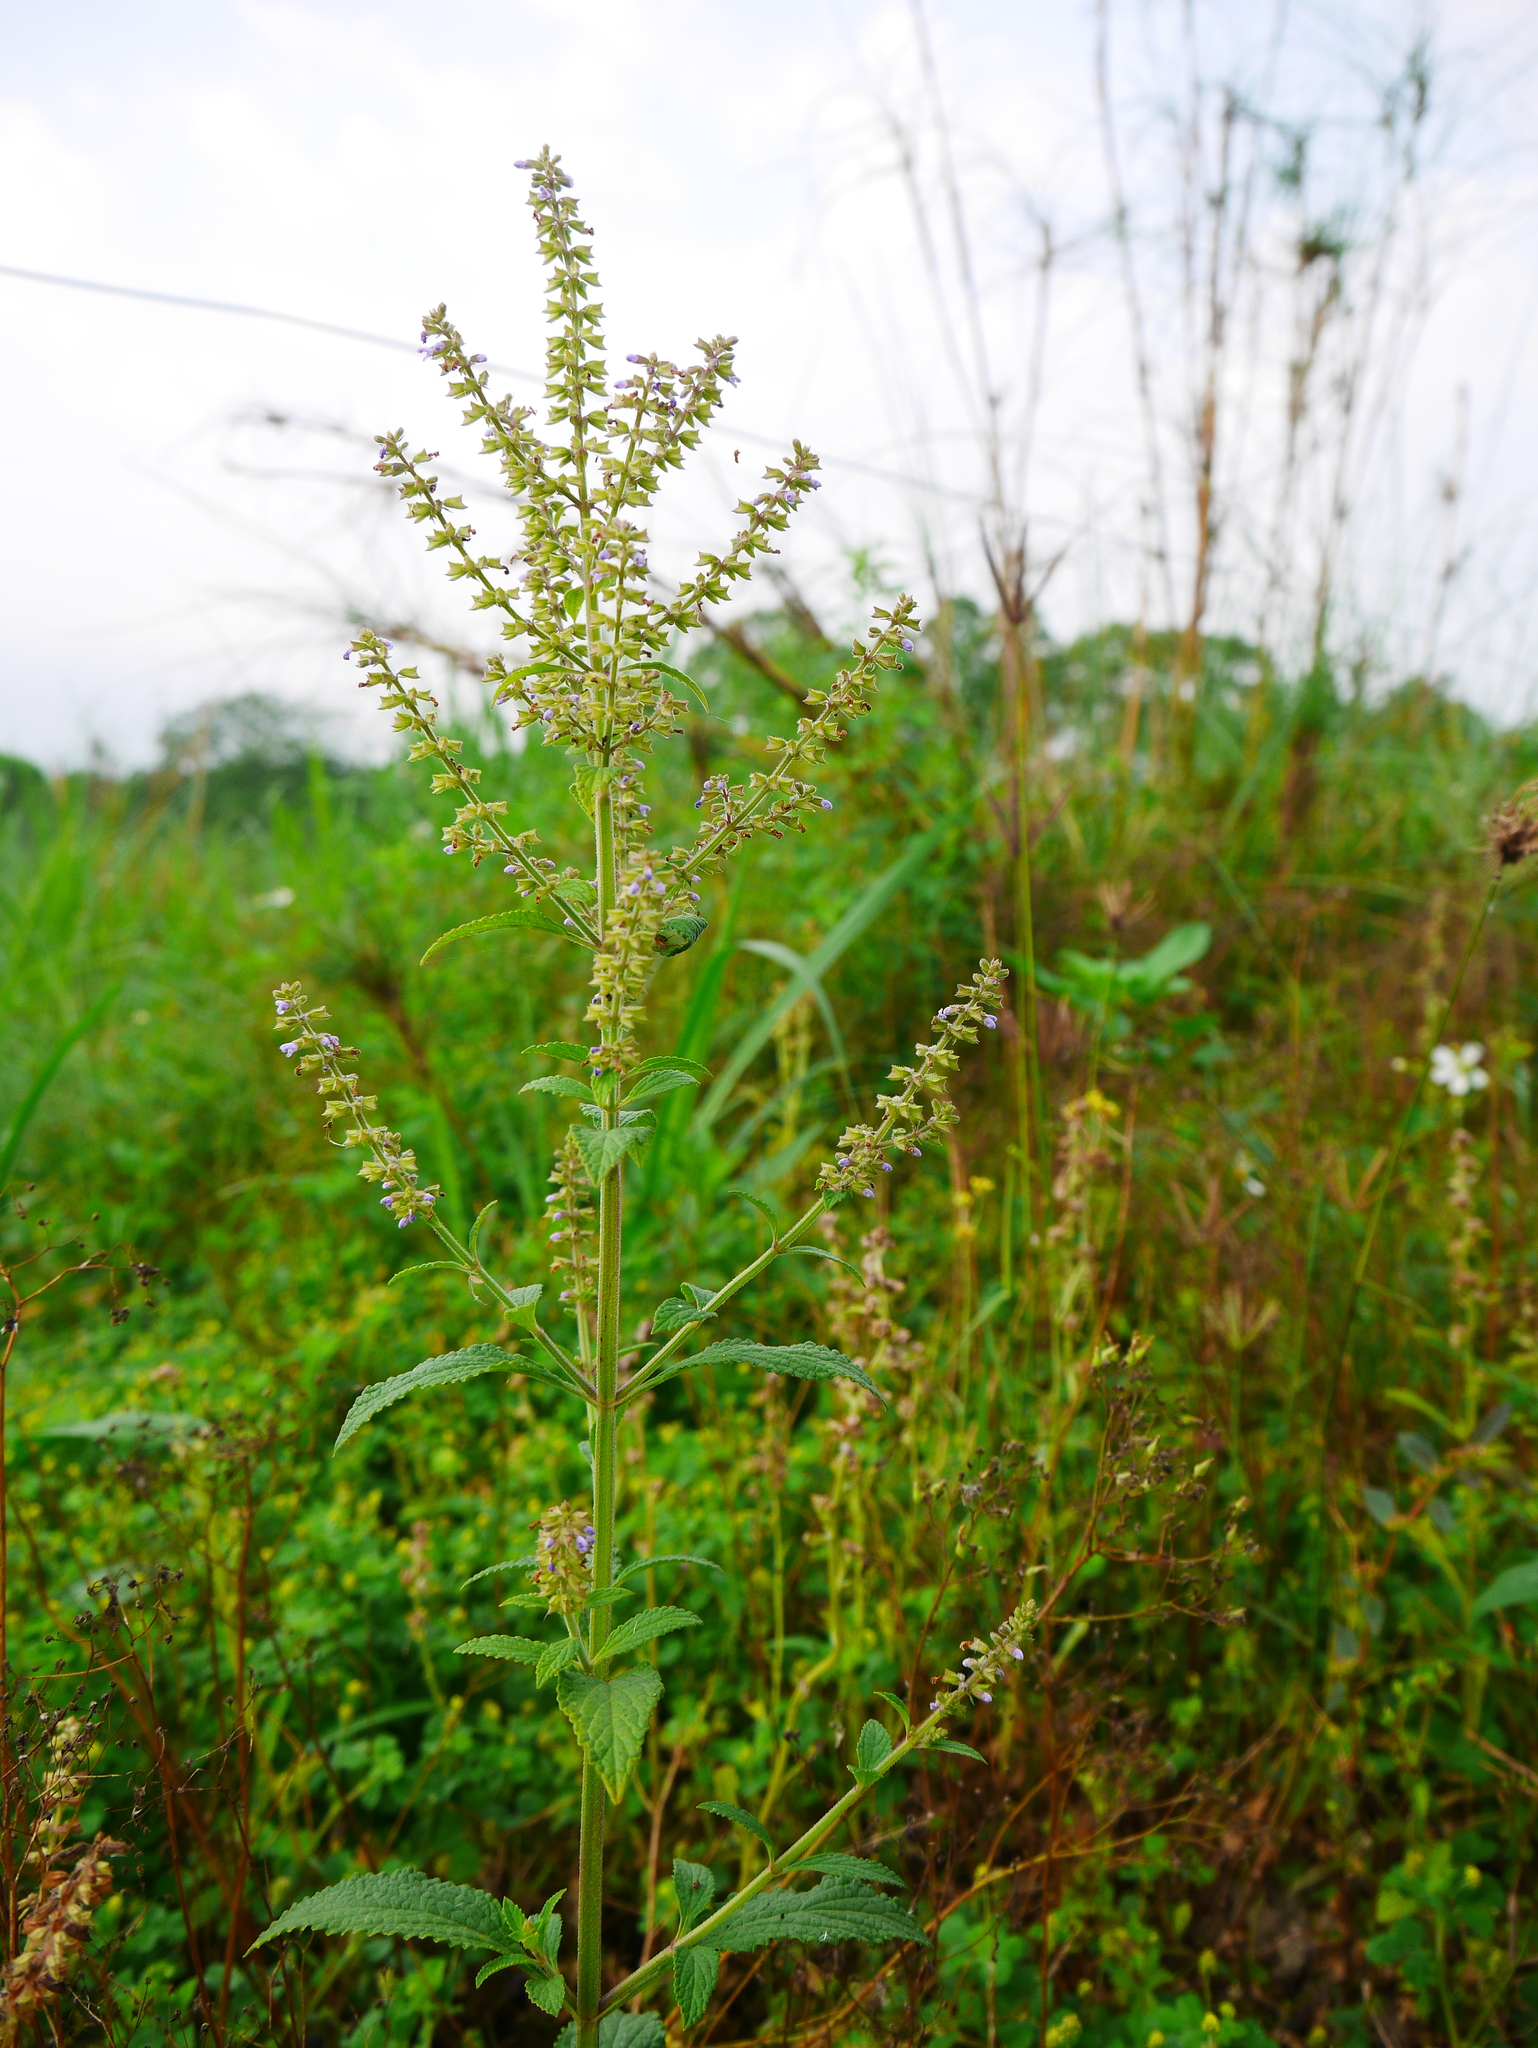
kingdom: Plantae
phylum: Tracheophyta
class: Magnoliopsida
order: Lamiales
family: Lamiaceae
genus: Salvia
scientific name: Salvia plebeia
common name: Australian sage
